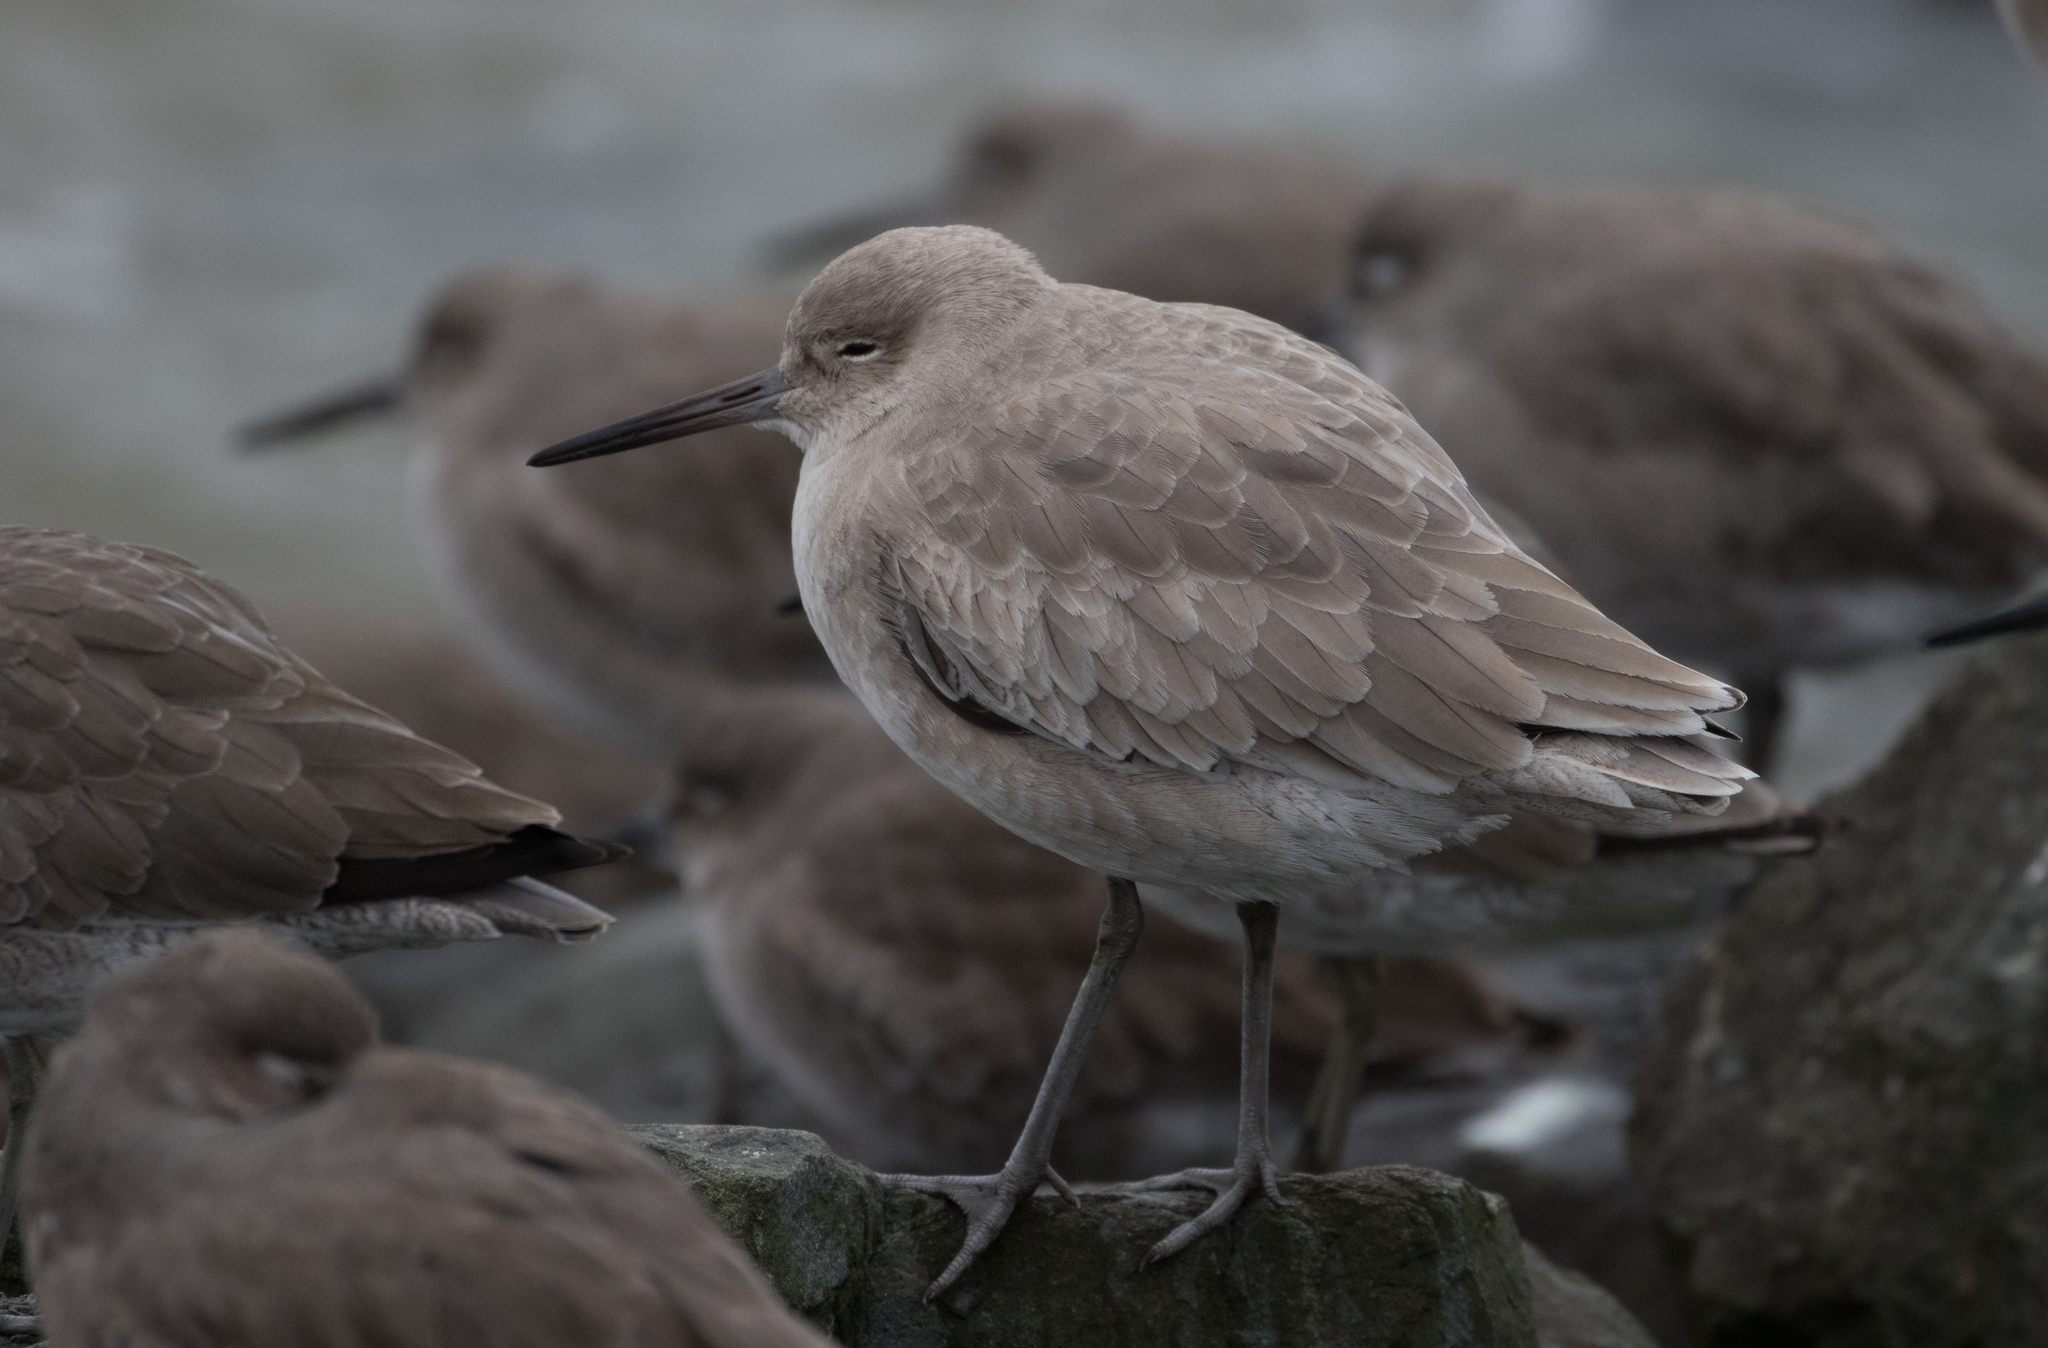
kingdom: Animalia
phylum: Chordata
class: Aves
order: Charadriiformes
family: Scolopacidae
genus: Tringa
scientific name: Tringa semipalmata
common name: Willet
